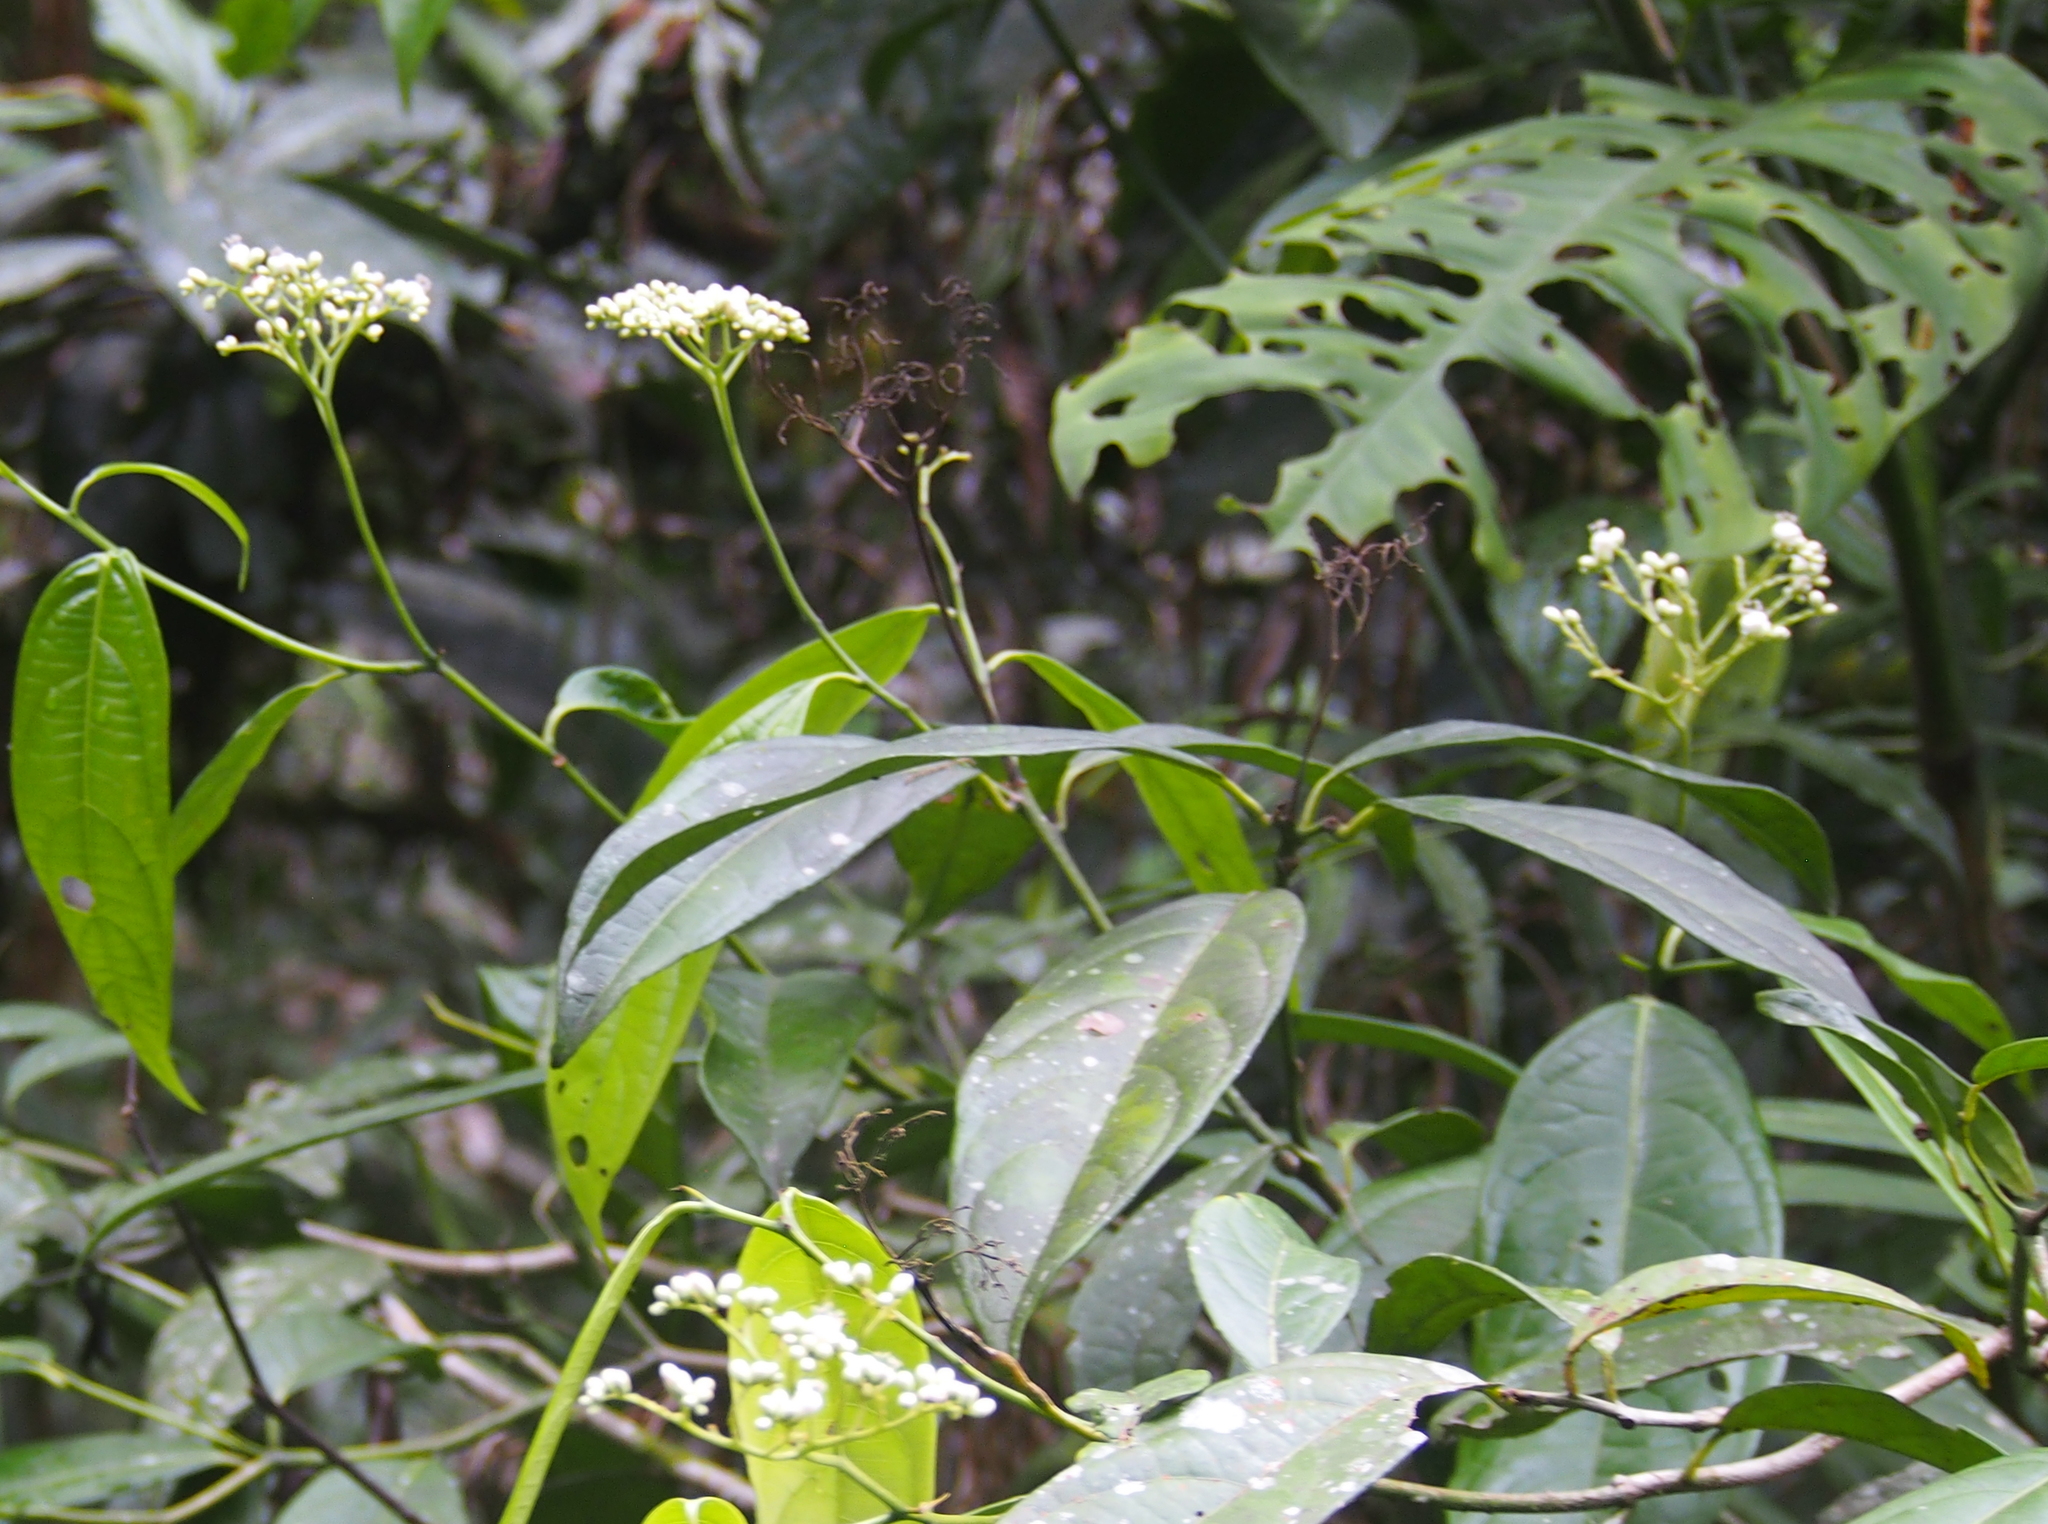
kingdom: Plantae
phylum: Tracheophyta
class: Magnoliopsida
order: Boraginales
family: Cordiaceae
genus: Cordia
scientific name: Cordia porcata
